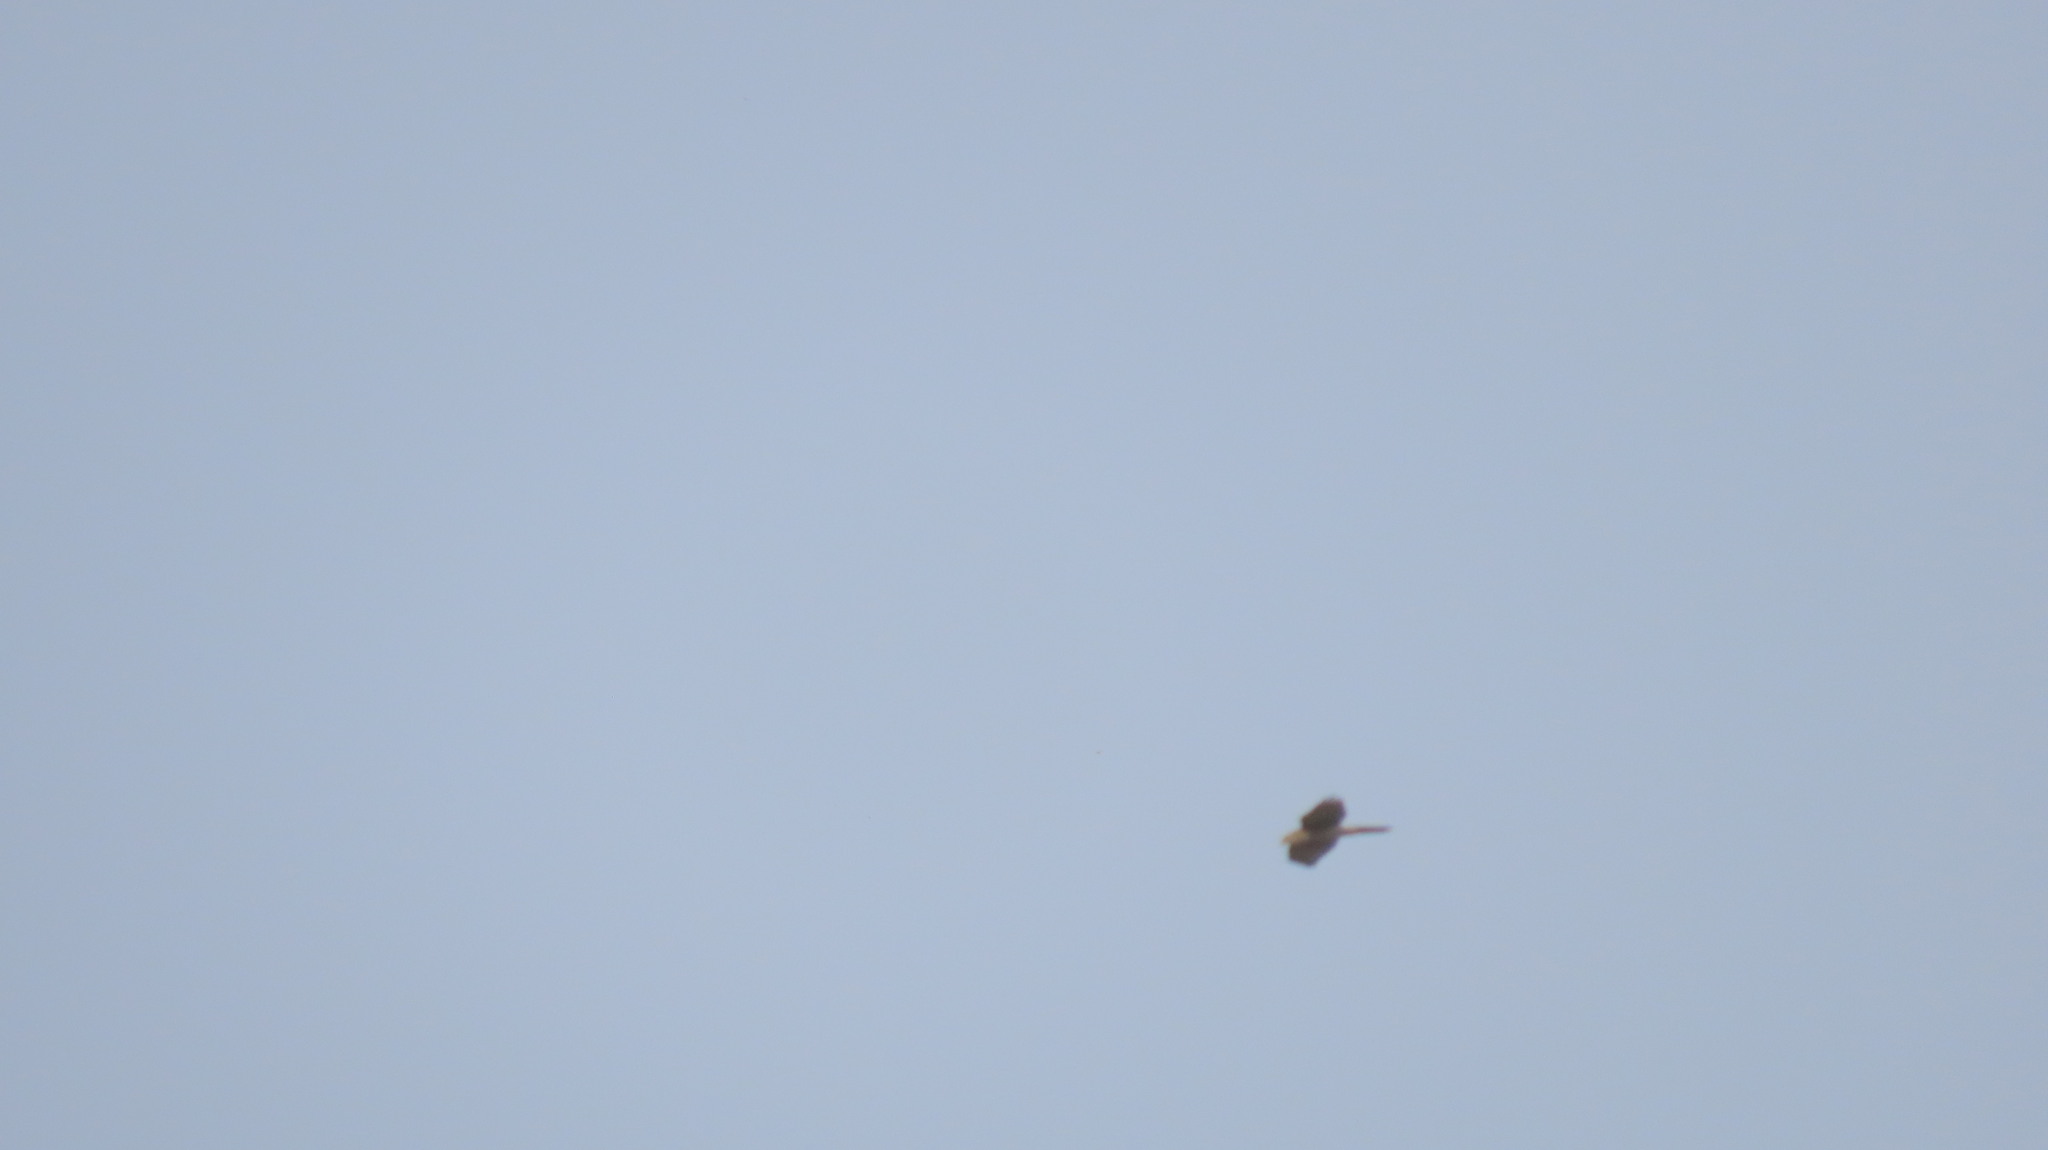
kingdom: Animalia
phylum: Chordata
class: Aves
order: Accipitriformes
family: Accipitridae
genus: Accipiter
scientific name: Accipiter badius
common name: Shikra
